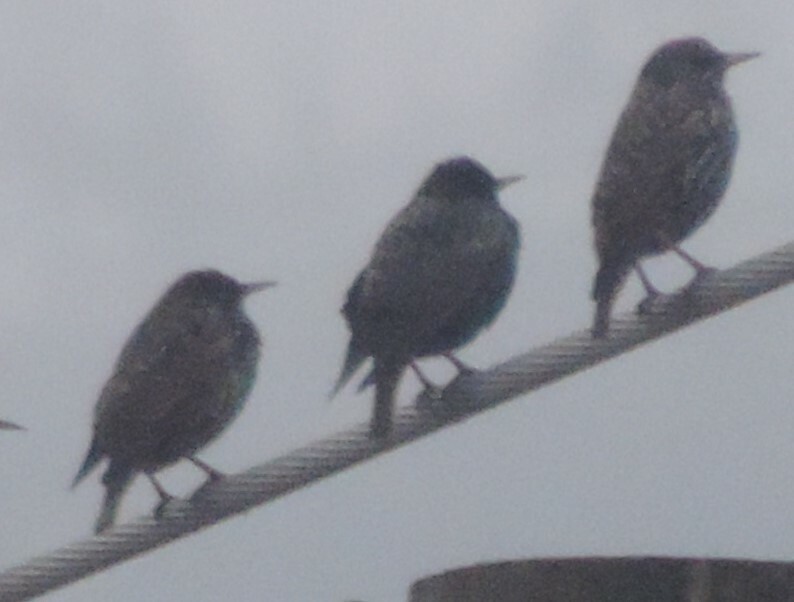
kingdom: Animalia
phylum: Chordata
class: Aves
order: Passeriformes
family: Sturnidae
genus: Sturnus
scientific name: Sturnus vulgaris
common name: Common starling
